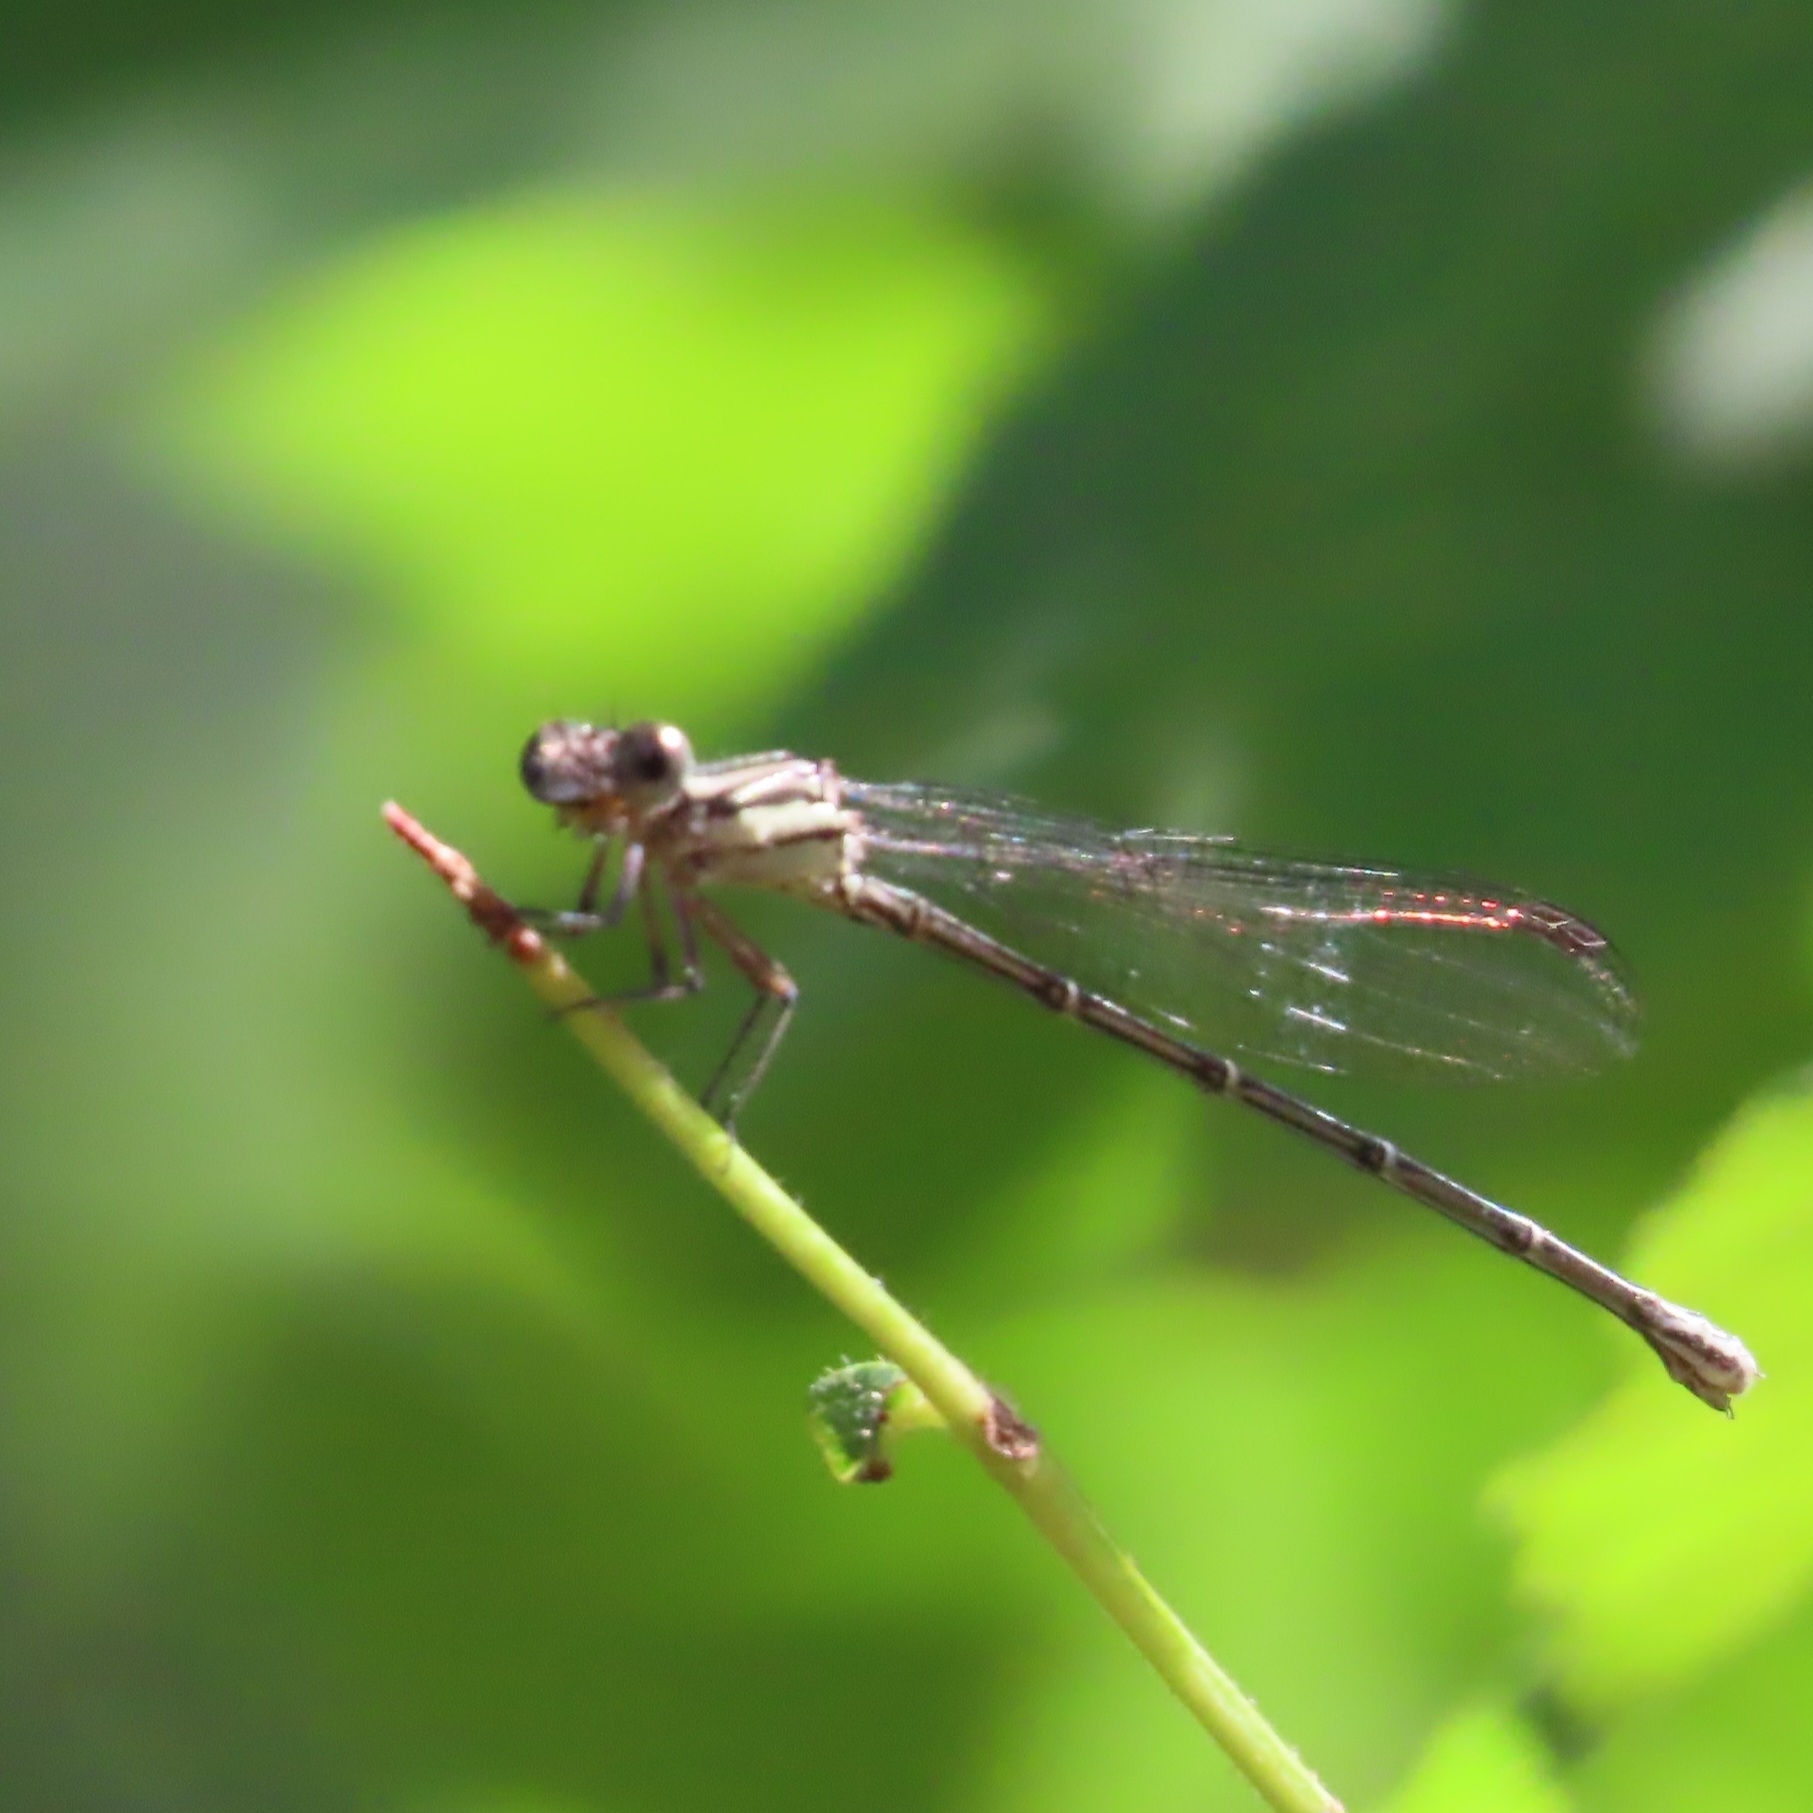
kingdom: Animalia
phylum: Arthropoda
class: Insecta
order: Odonata
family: Coenagrionidae
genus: Argia
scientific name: Argia translata
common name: Dusky dancer
